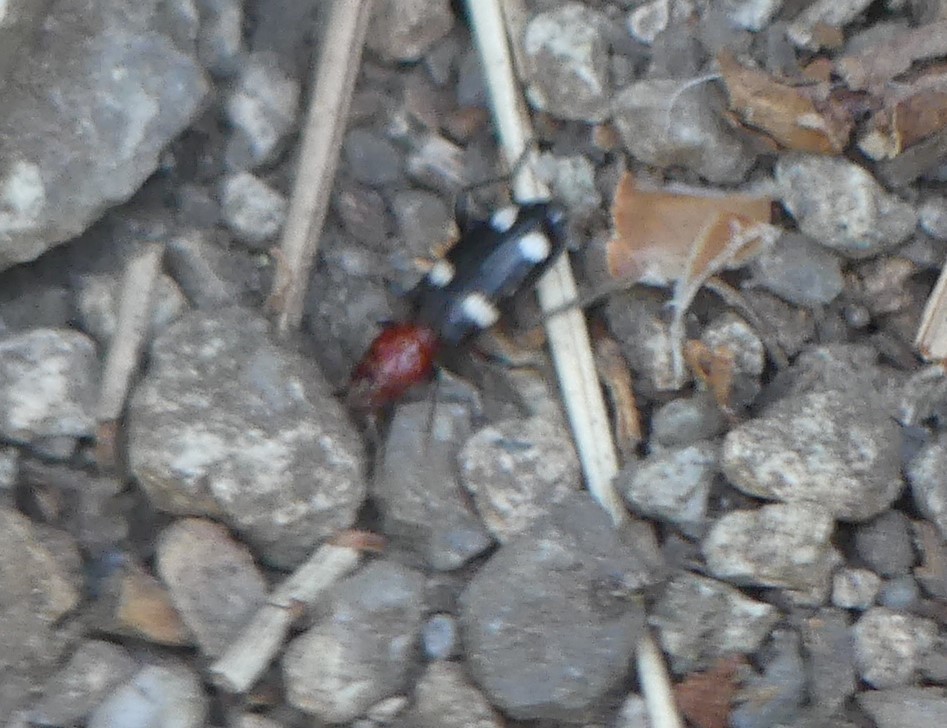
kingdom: Animalia
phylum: Arthropoda
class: Insecta
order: Coleoptera
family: Cleridae
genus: Allonyx
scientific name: Allonyx quadrimaculatus
